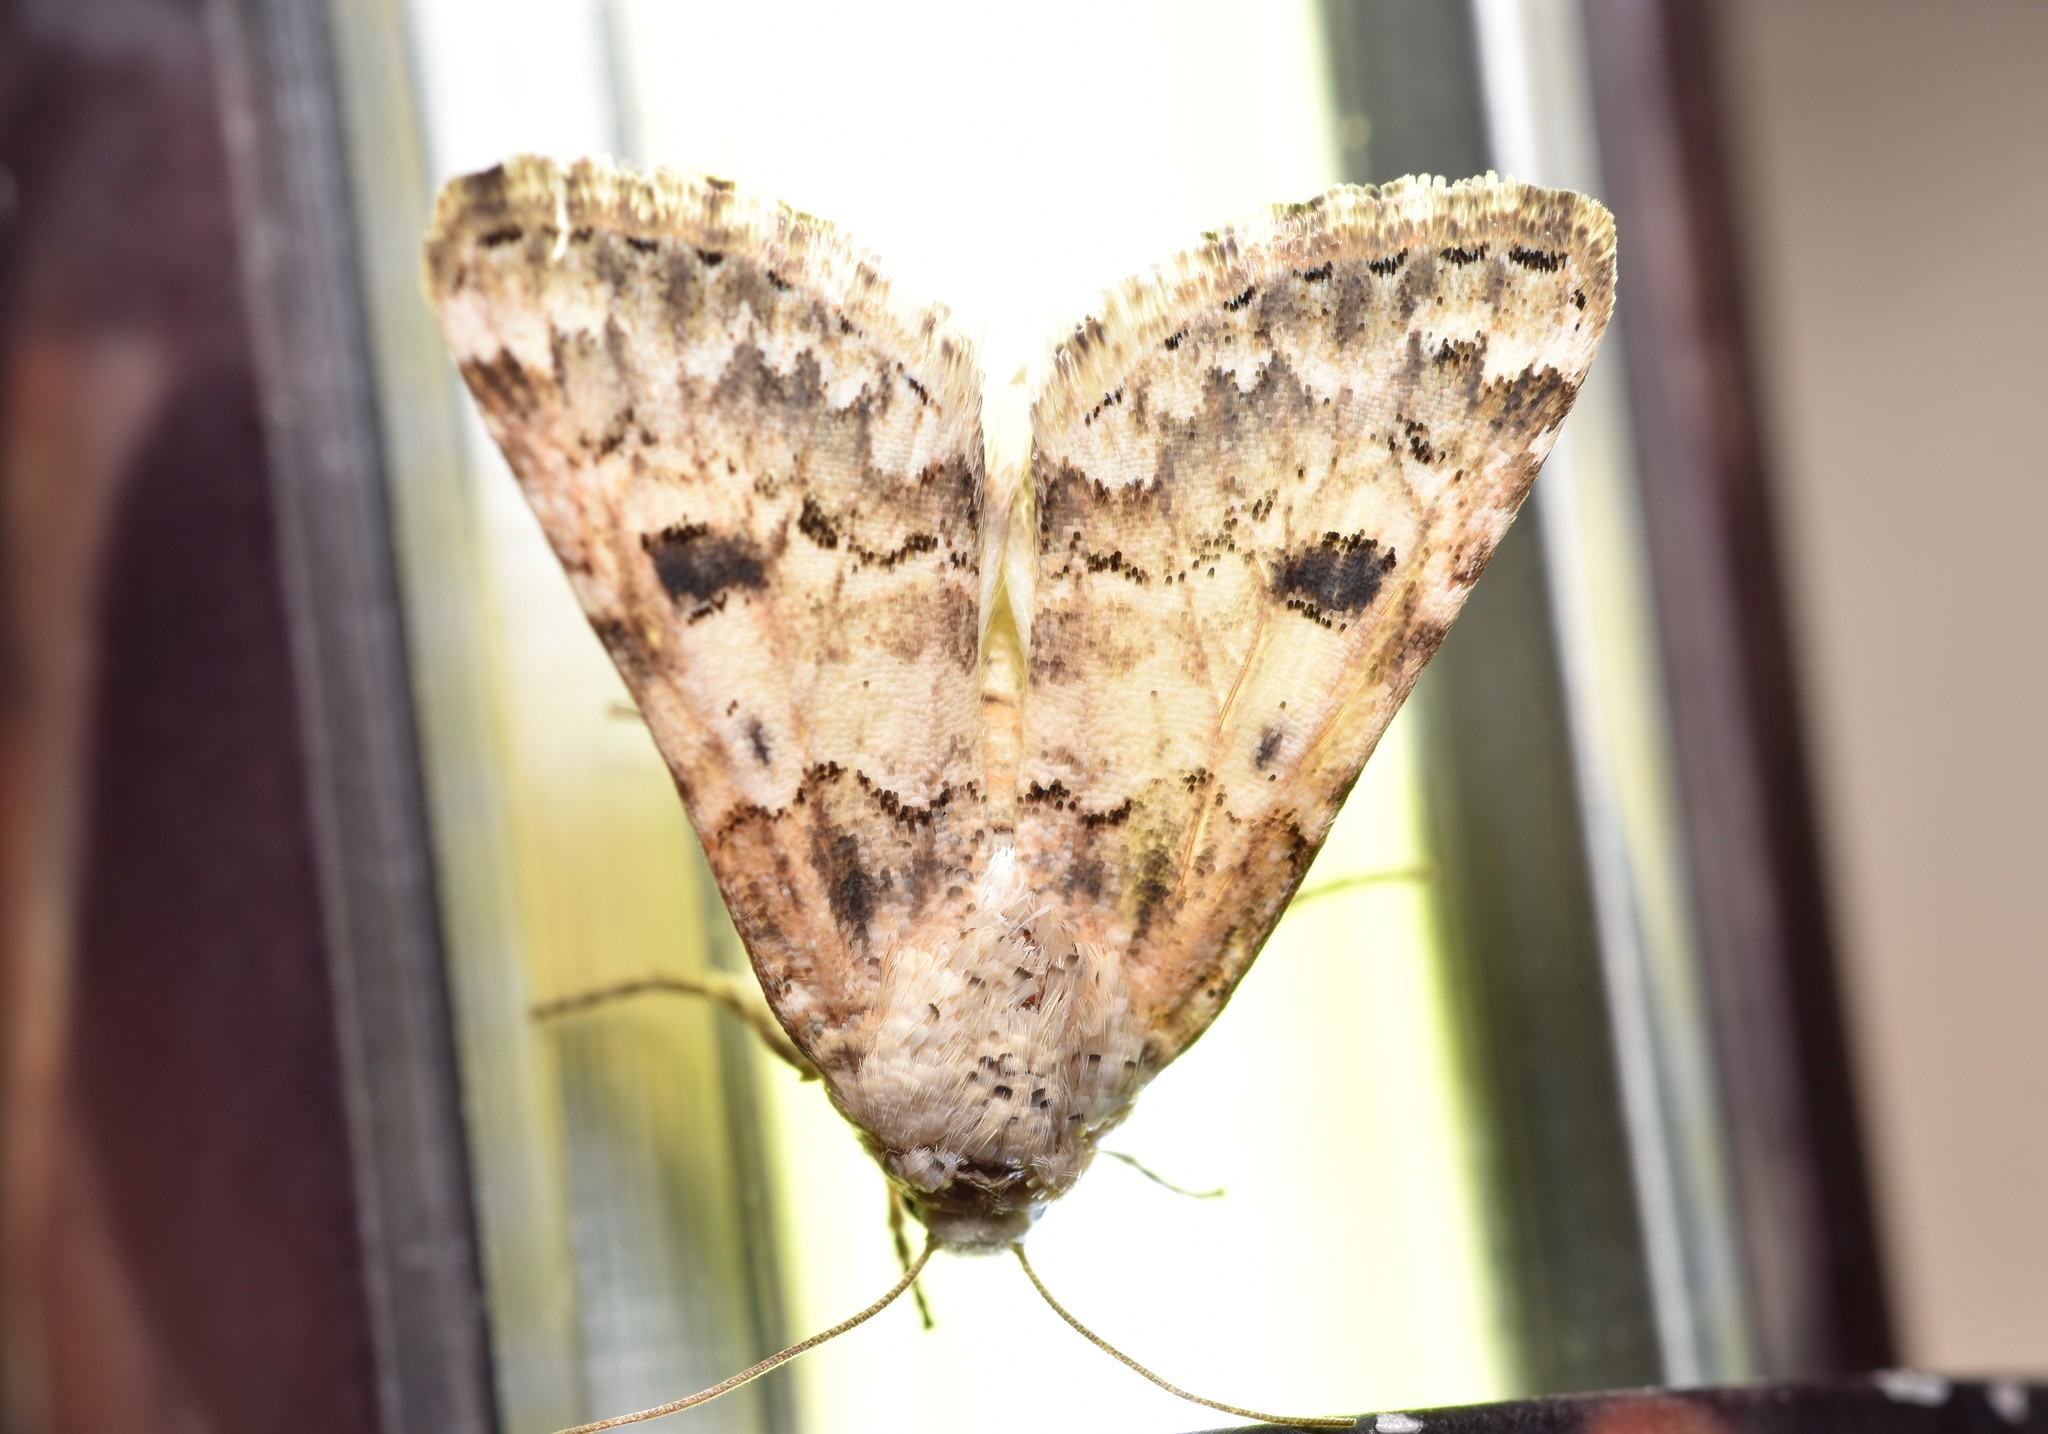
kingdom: Animalia
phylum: Arthropoda
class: Insecta
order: Lepidoptera
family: Noctuidae
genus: Schinia
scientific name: Schinia tertia
